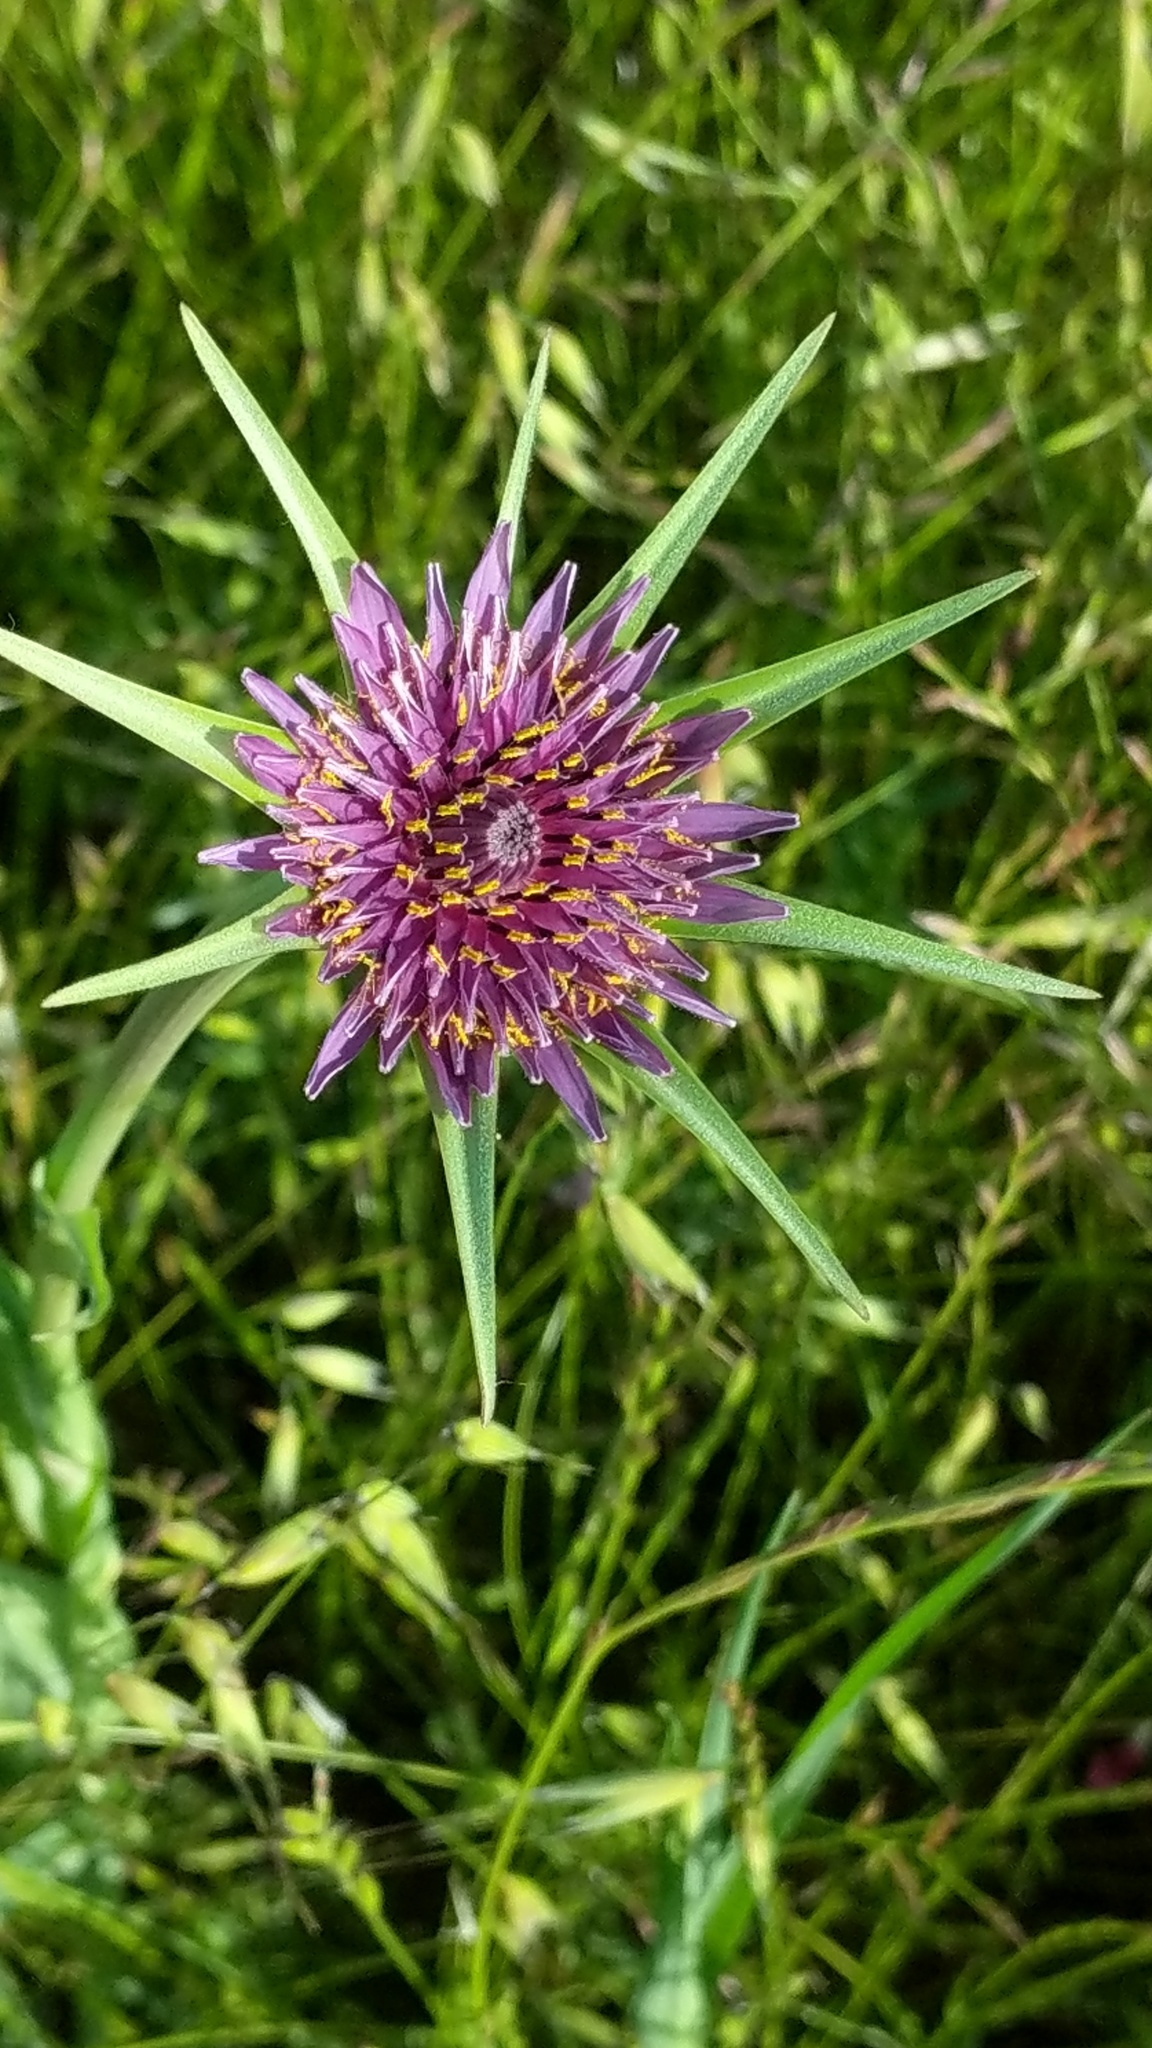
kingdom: Plantae
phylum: Tracheophyta
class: Magnoliopsida
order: Asterales
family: Asteraceae
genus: Tragopogon
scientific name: Tragopogon porrifolius
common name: Salsify
